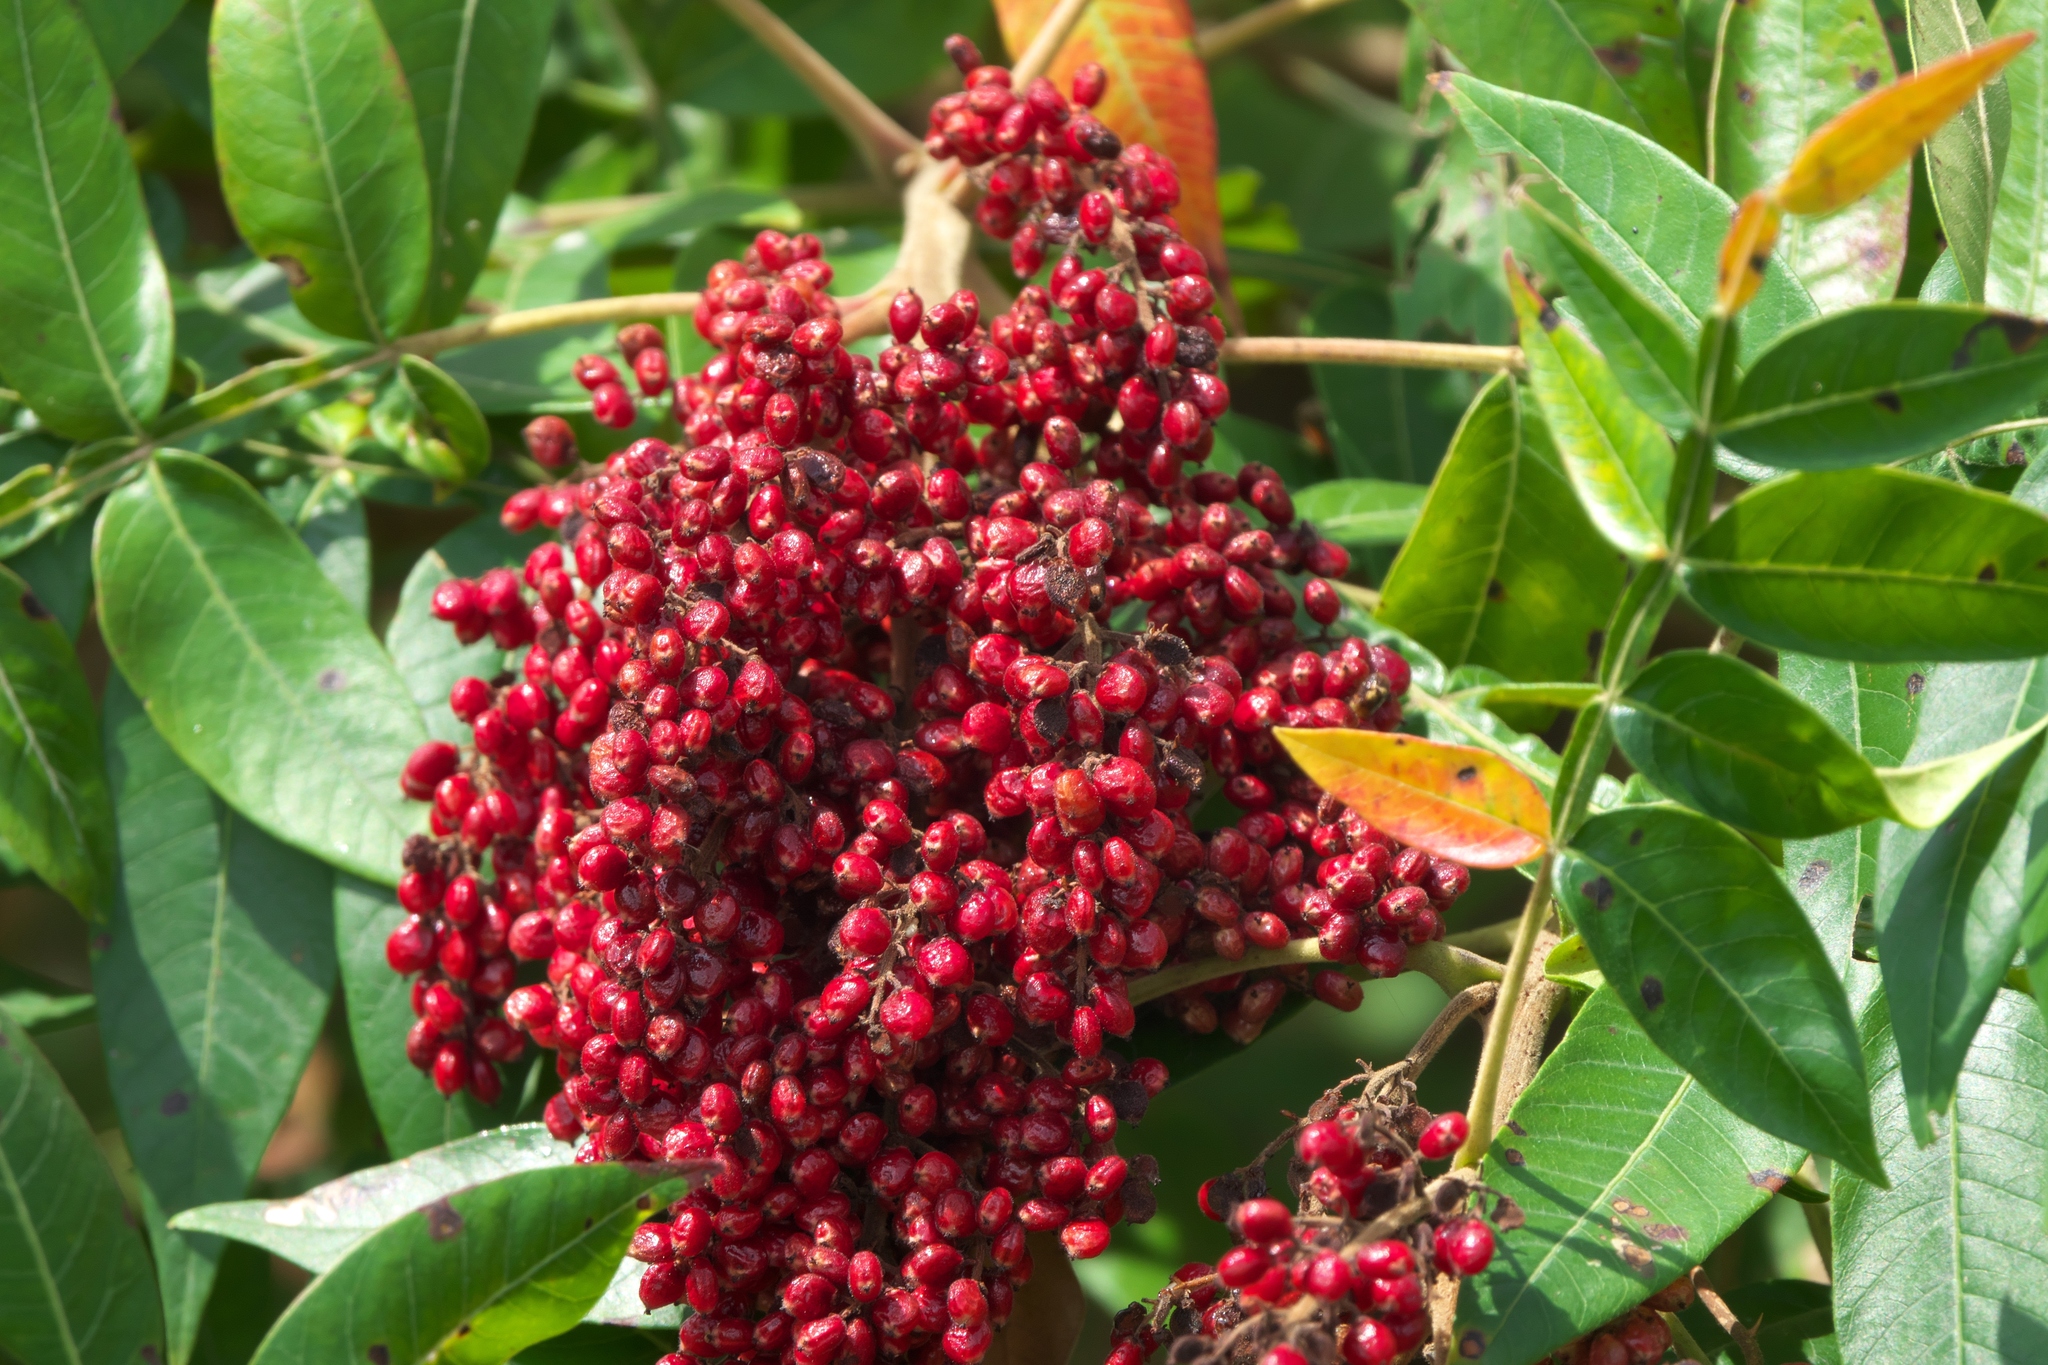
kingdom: Plantae
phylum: Tracheophyta
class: Magnoliopsida
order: Sapindales
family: Anacardiaceae
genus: Rhus
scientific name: Rhus copallina
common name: Shining sumac
